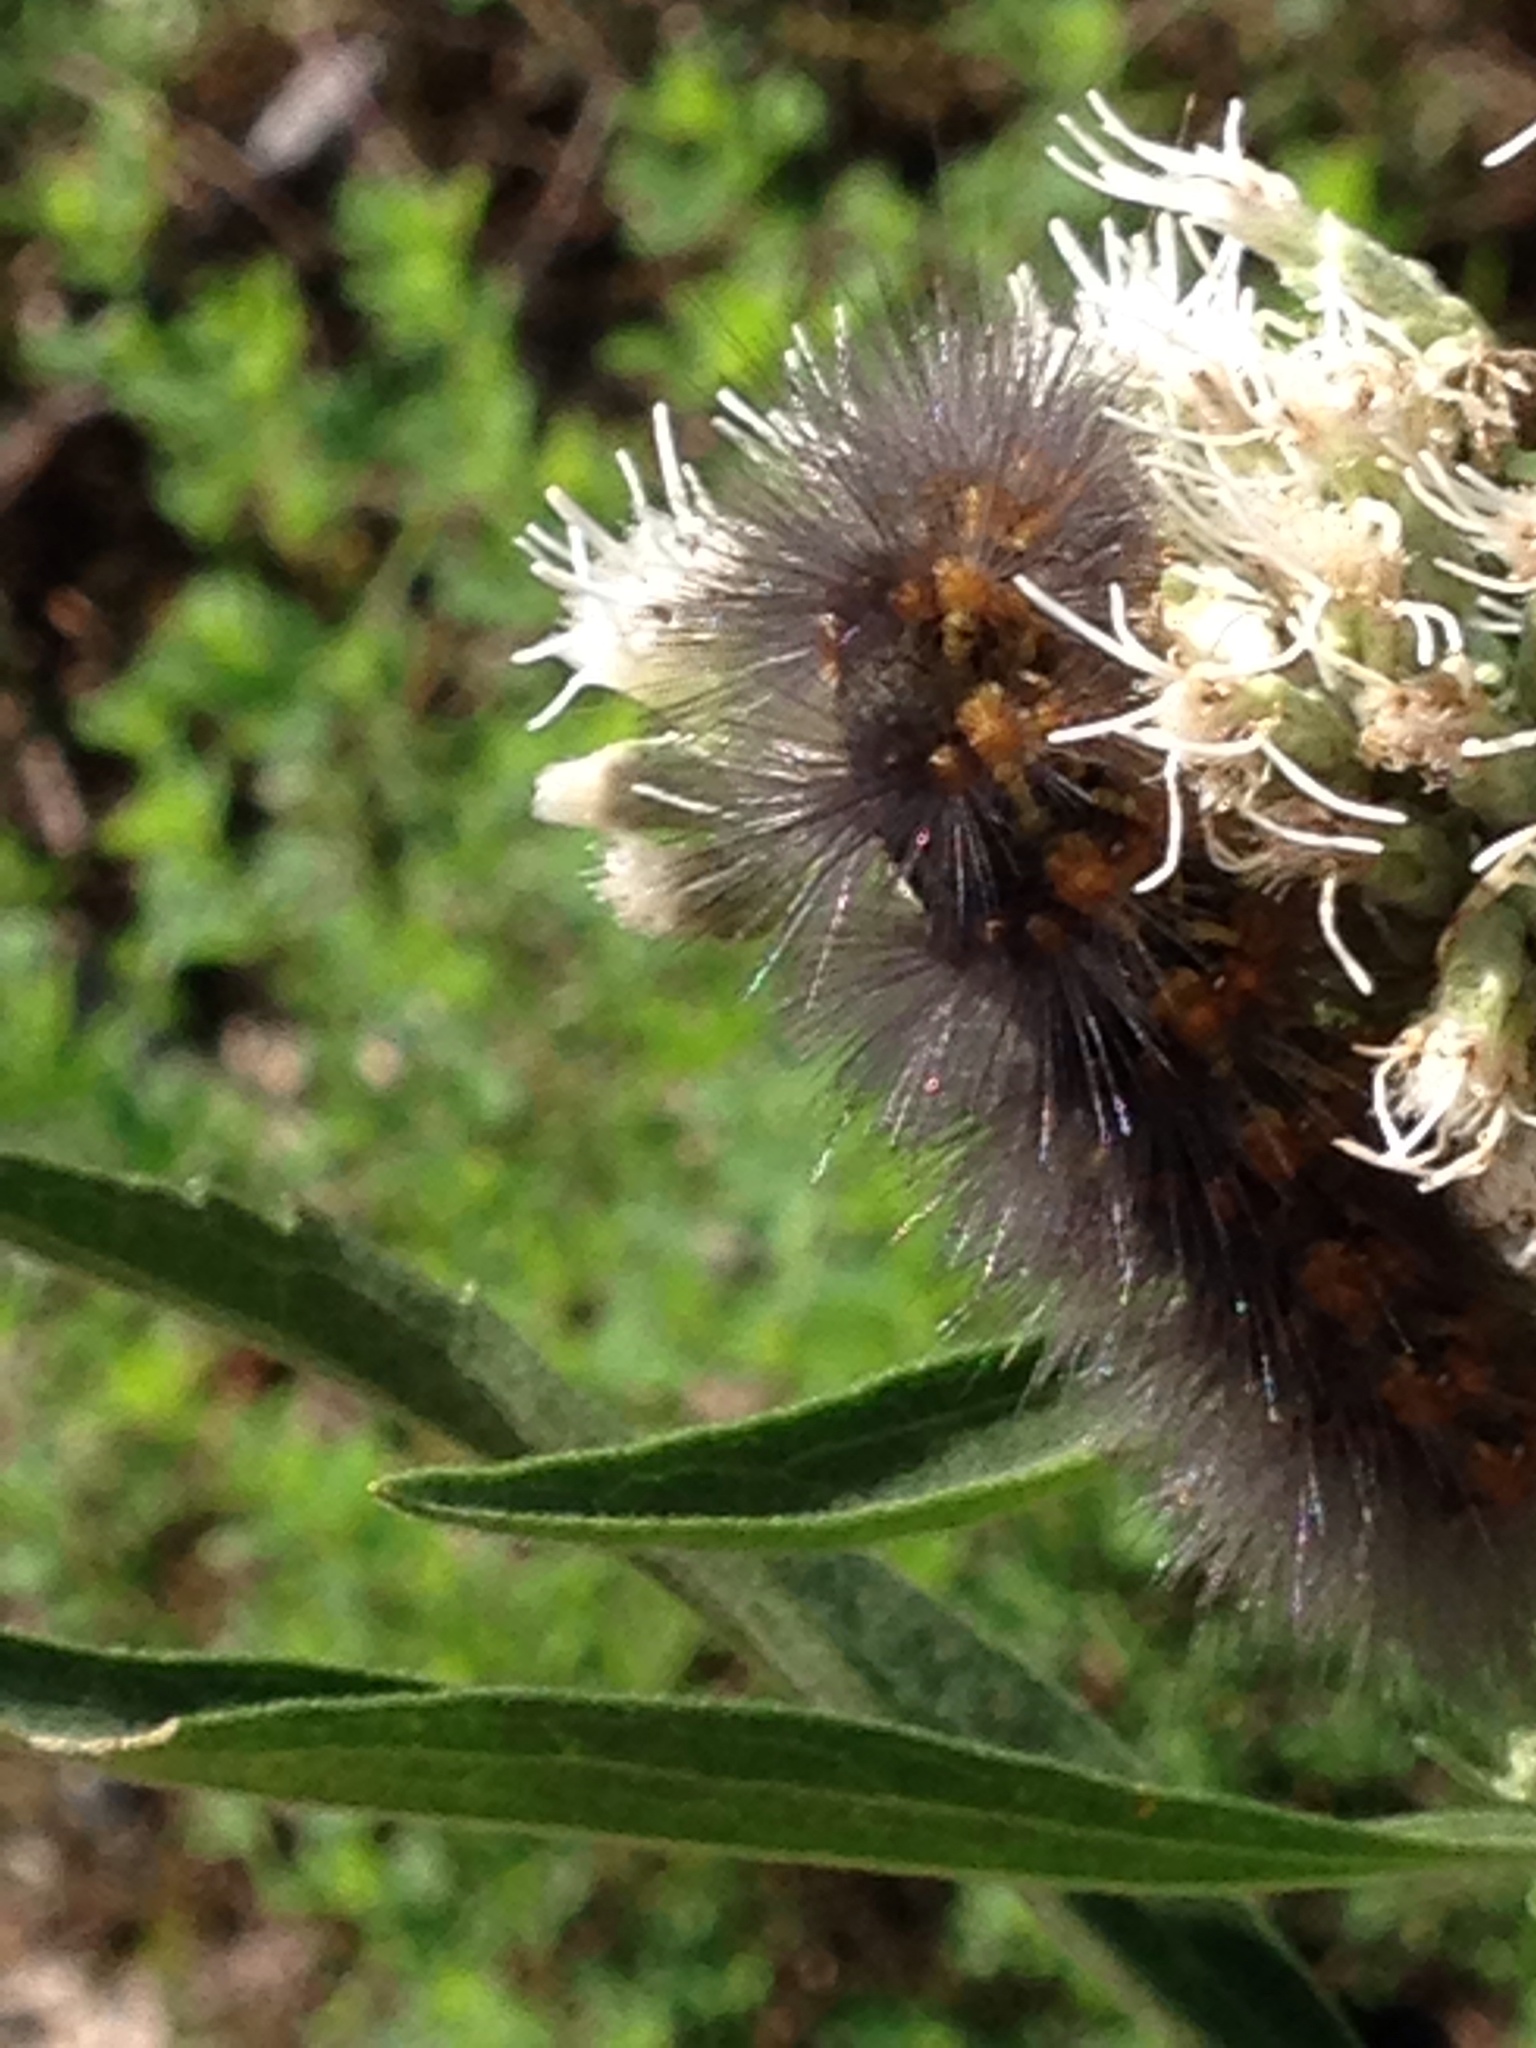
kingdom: Animalia
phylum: Arthropoda
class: Insecta
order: Lepidoptera
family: Erebidae
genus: Estigmene
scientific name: Estigmene acrea
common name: Salt marsh moth
